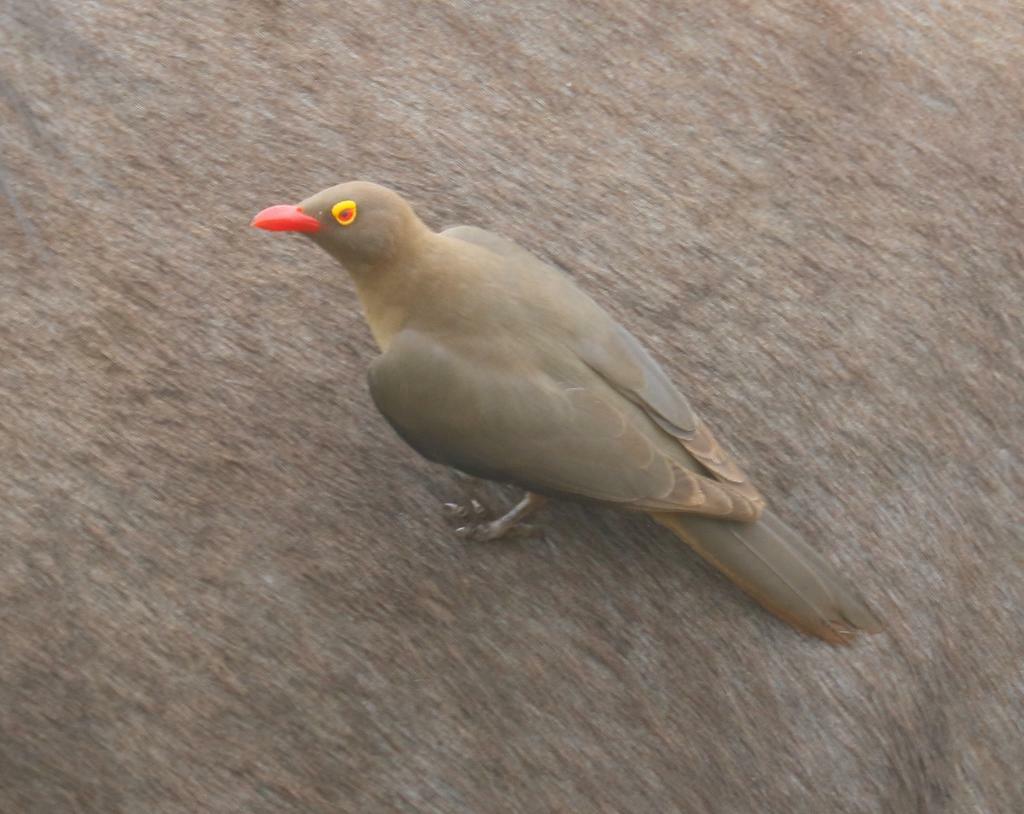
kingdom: Animalia
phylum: Chordata
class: Aves
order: Passeriformes
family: Buphagidae
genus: Buphagus
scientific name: Buphagus erythrorhynchus
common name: Red-billed oxpecker
